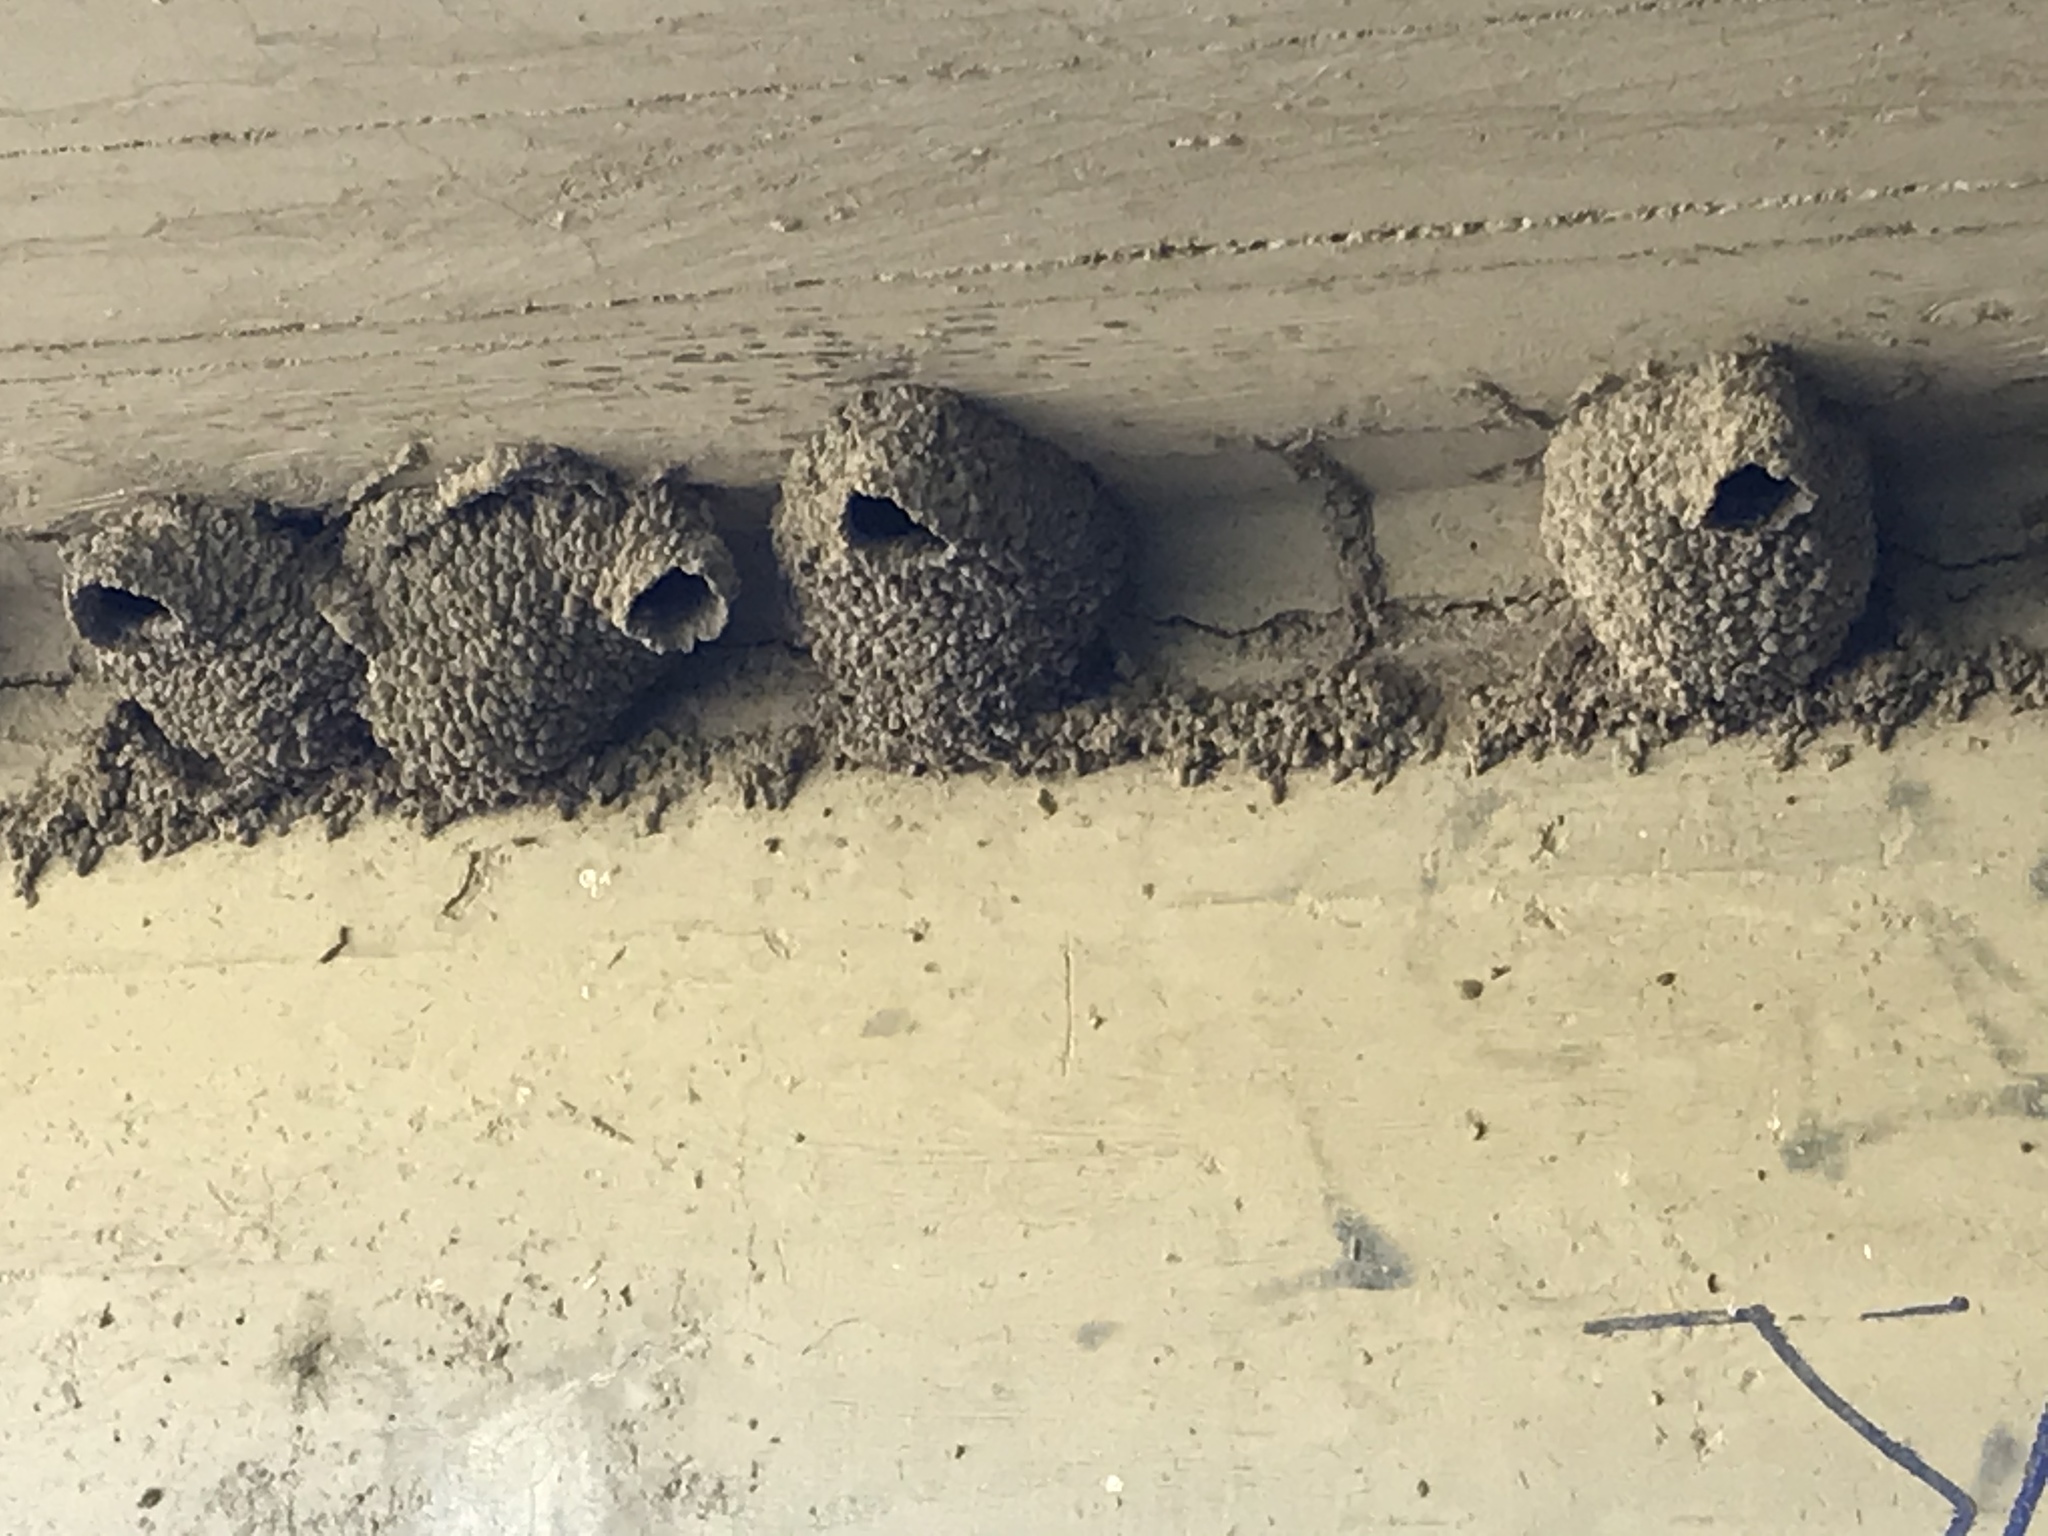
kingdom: Animalia
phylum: Chordata
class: Aves
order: Passeriformes
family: Hirundinidae
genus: Petrochelidon
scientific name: Petrochelidon pyrrhonota
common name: American cliff swallow
